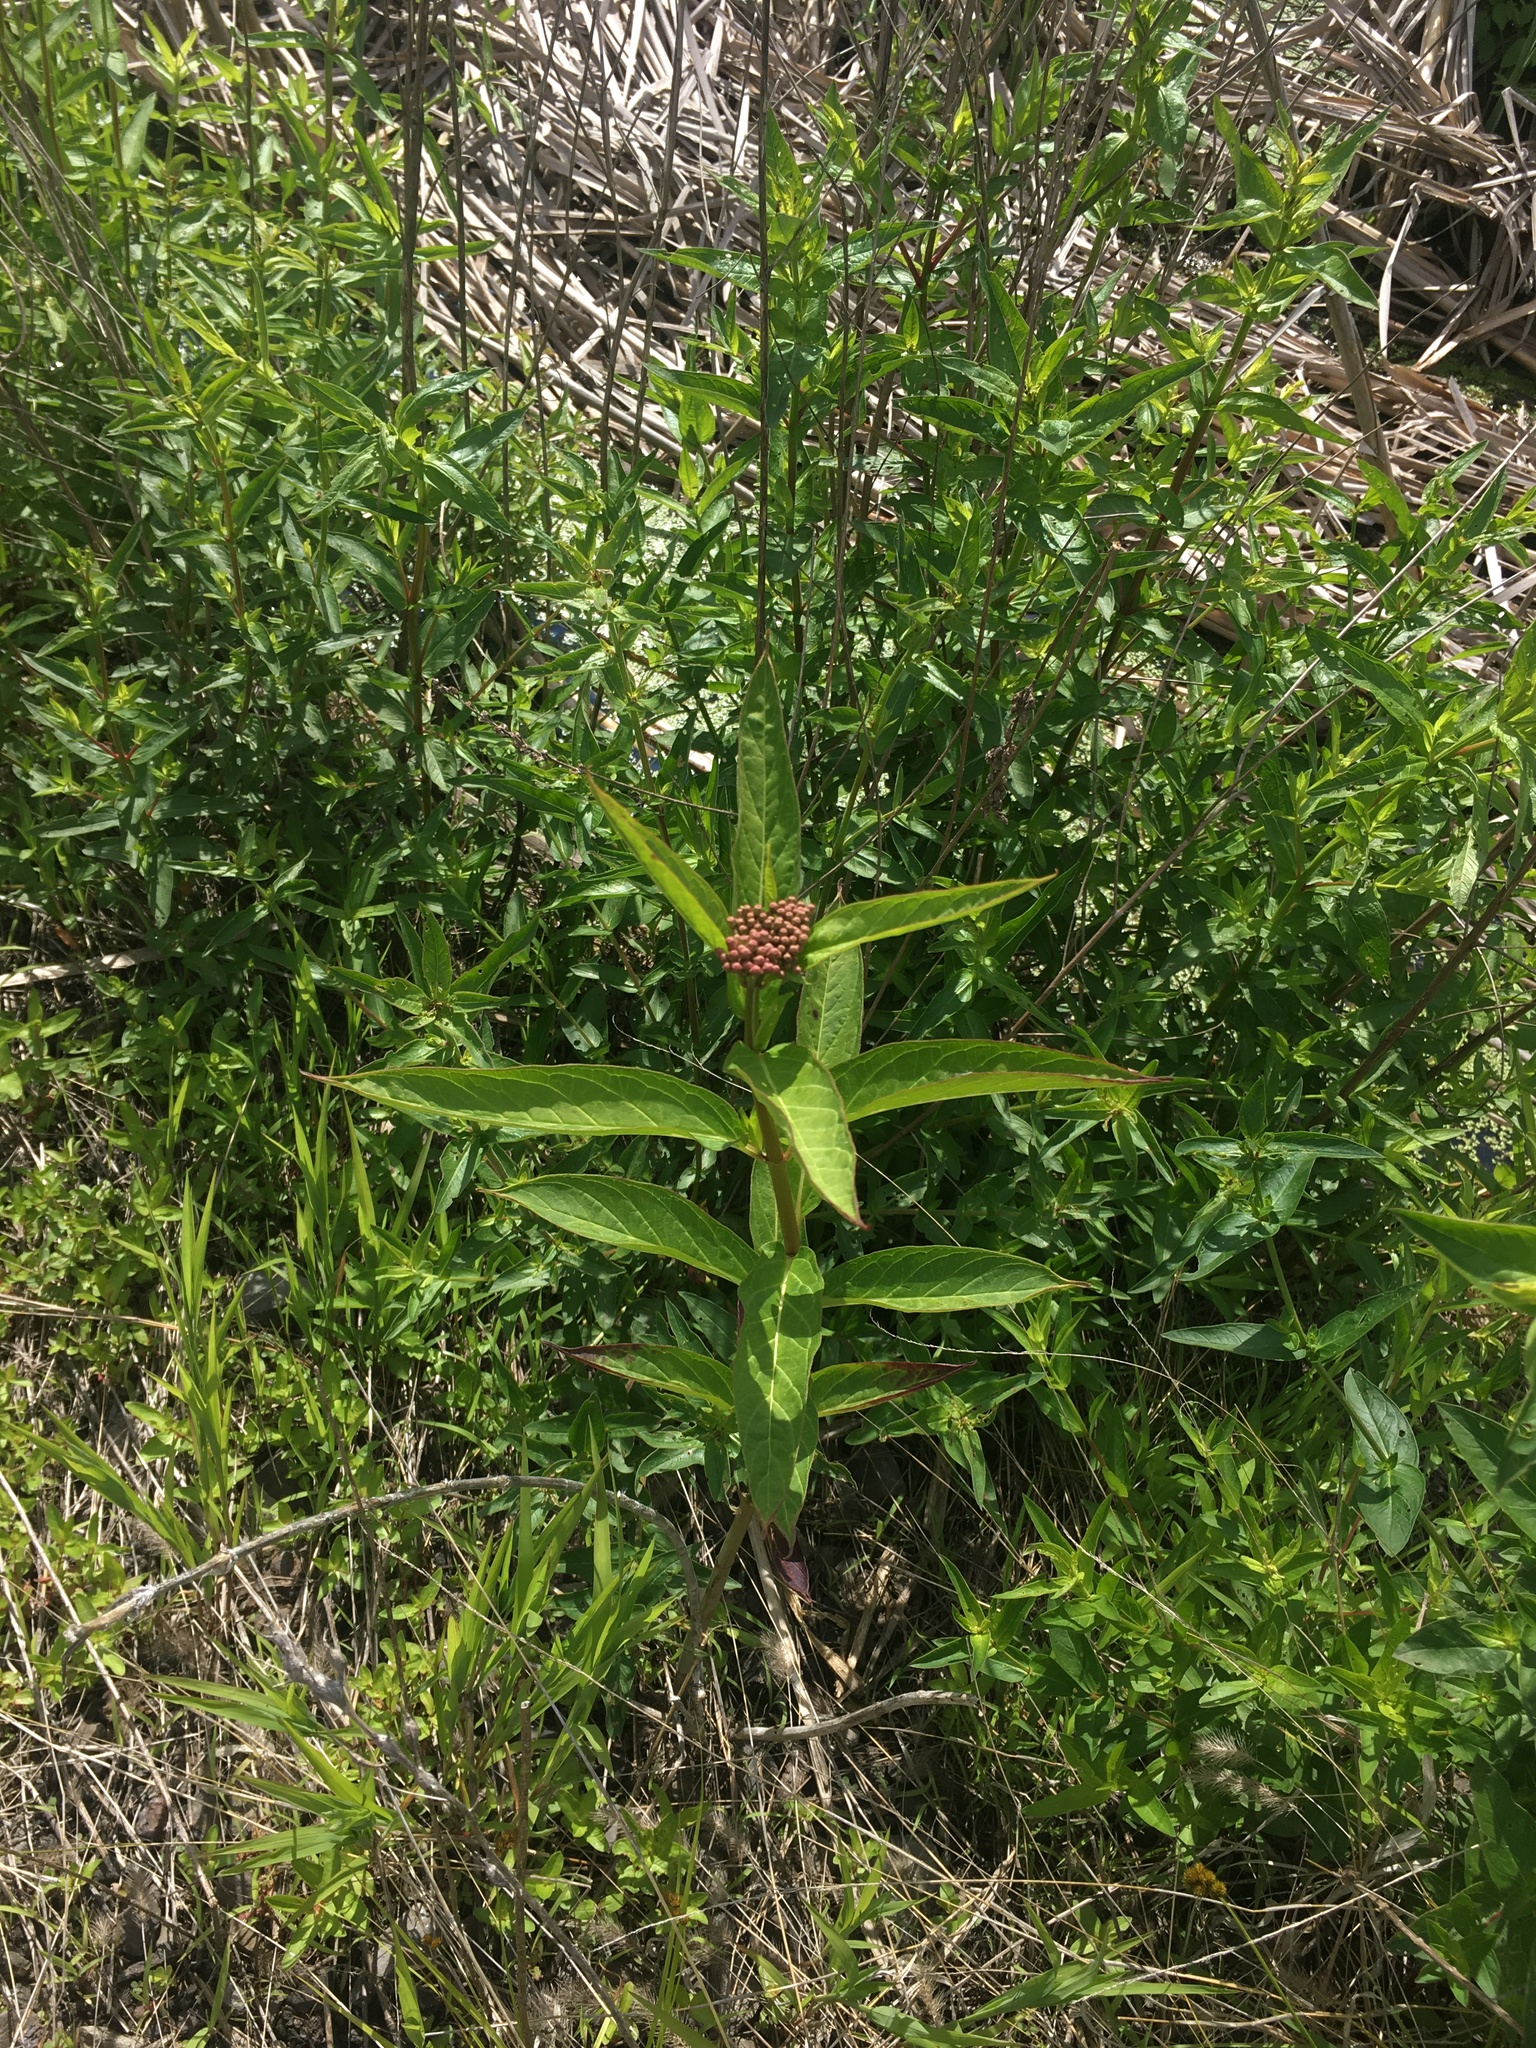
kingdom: Plantae
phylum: Tracheophyta
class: Magnoliopsida
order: Gentianales
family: Apocynaceae
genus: Asclepias
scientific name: Asclepias incarnata
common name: Swamp milkweed
